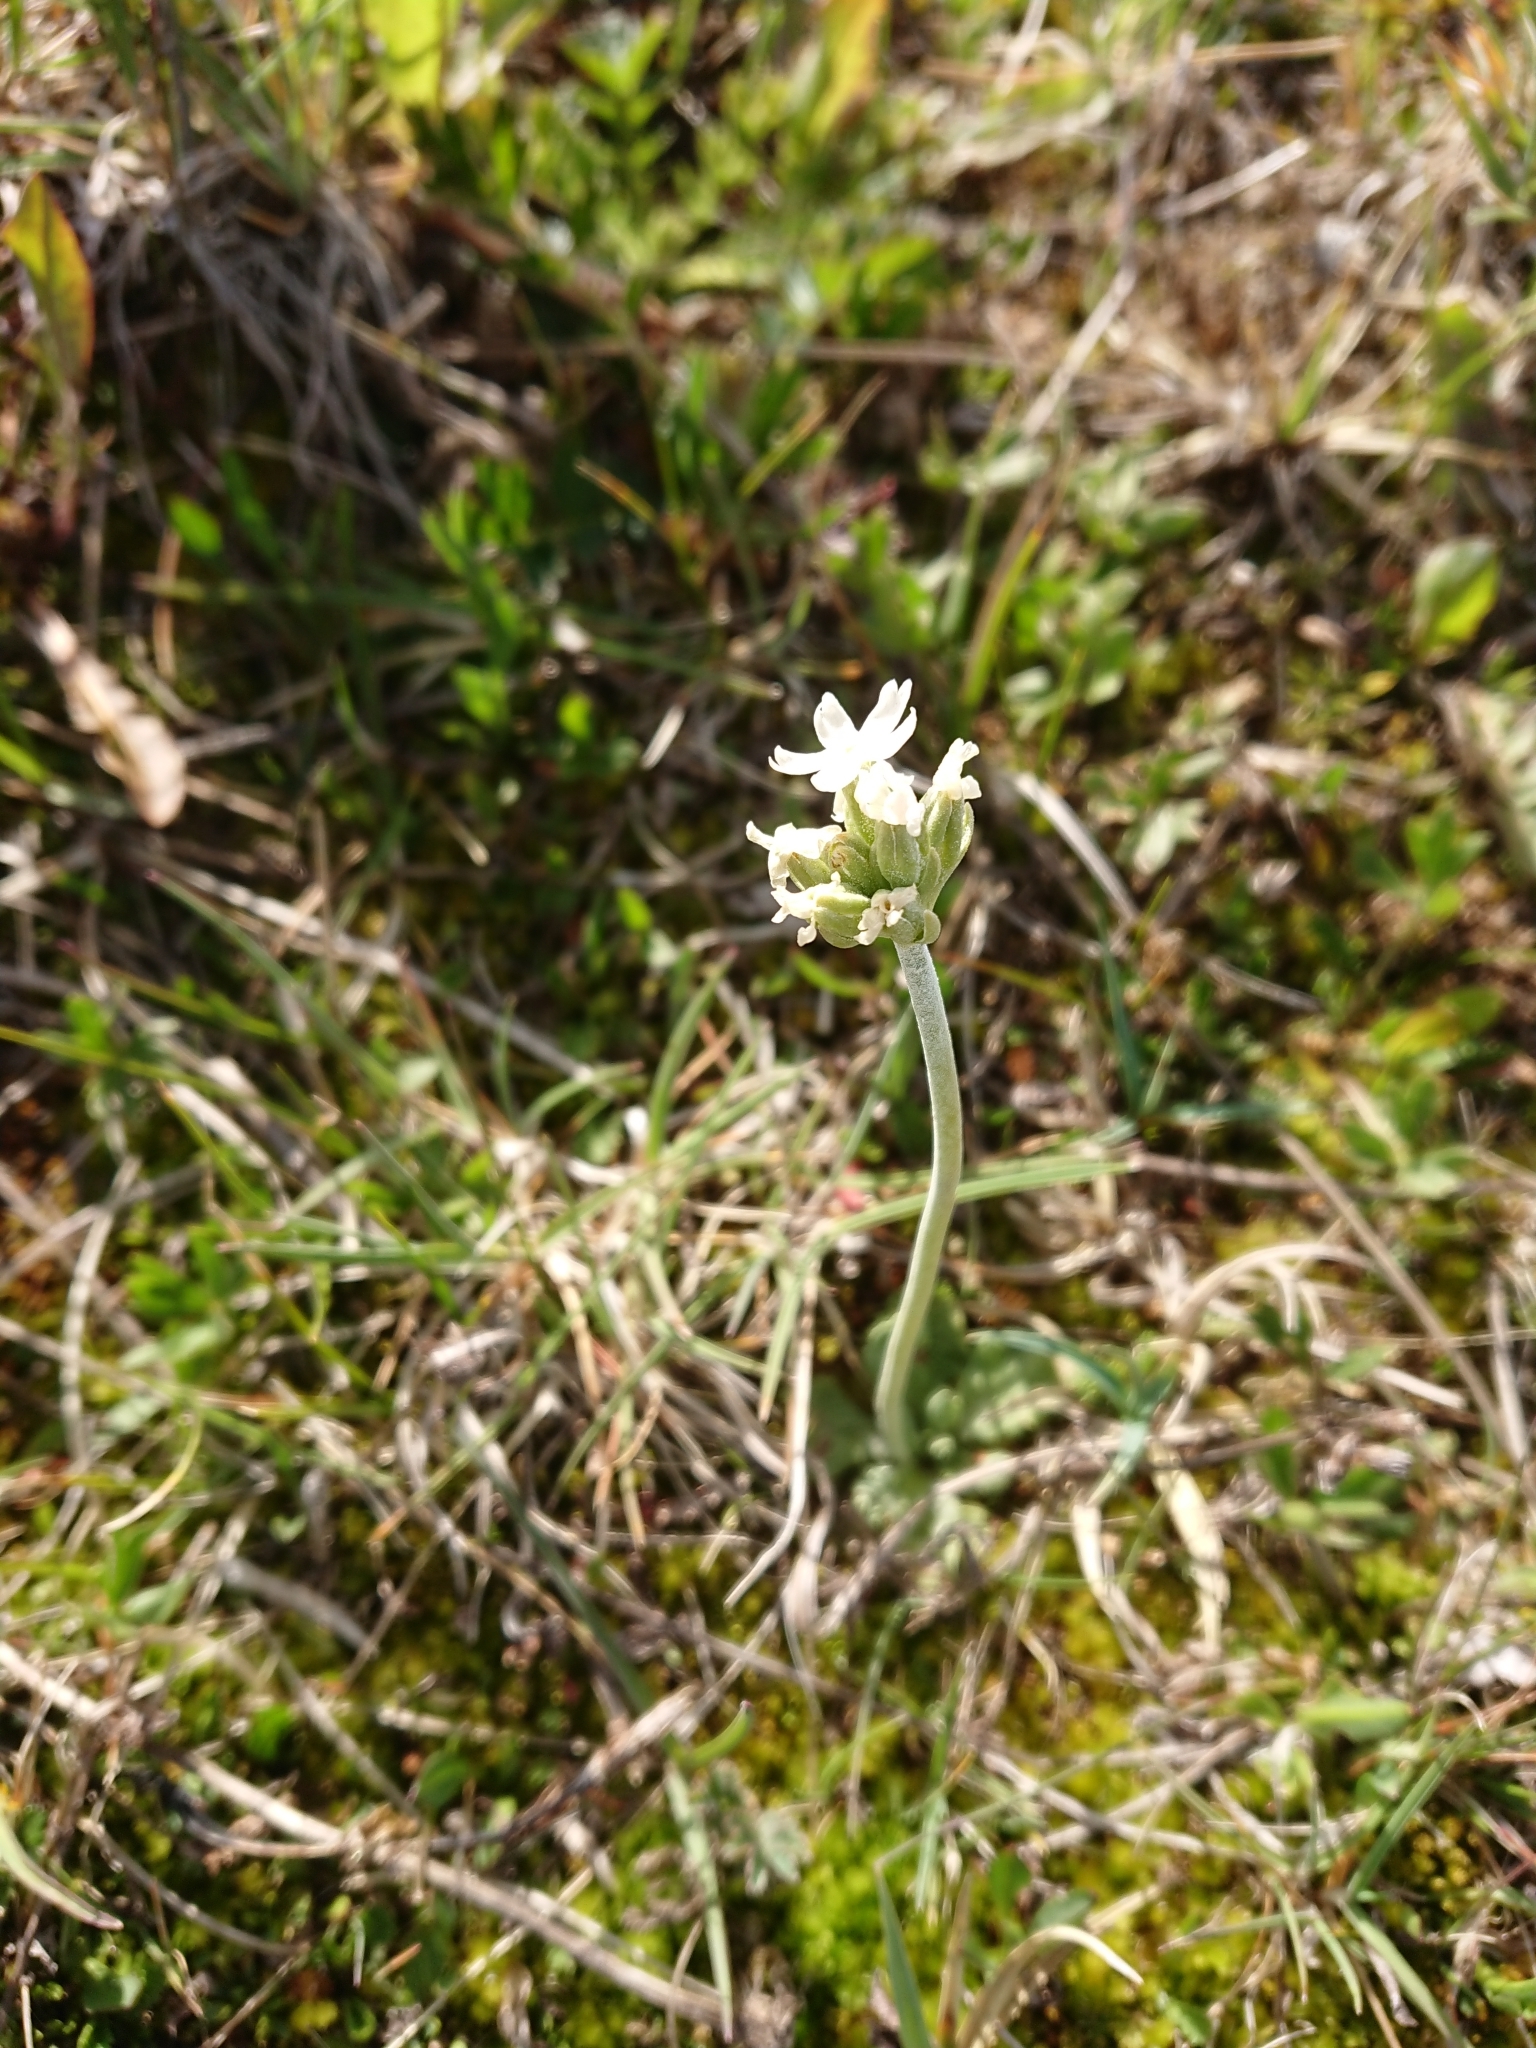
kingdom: Plantae
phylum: Tracheophyta
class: Magnoliopsida
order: Ericales
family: Primulaceae
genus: Primula
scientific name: Primula magellanica
